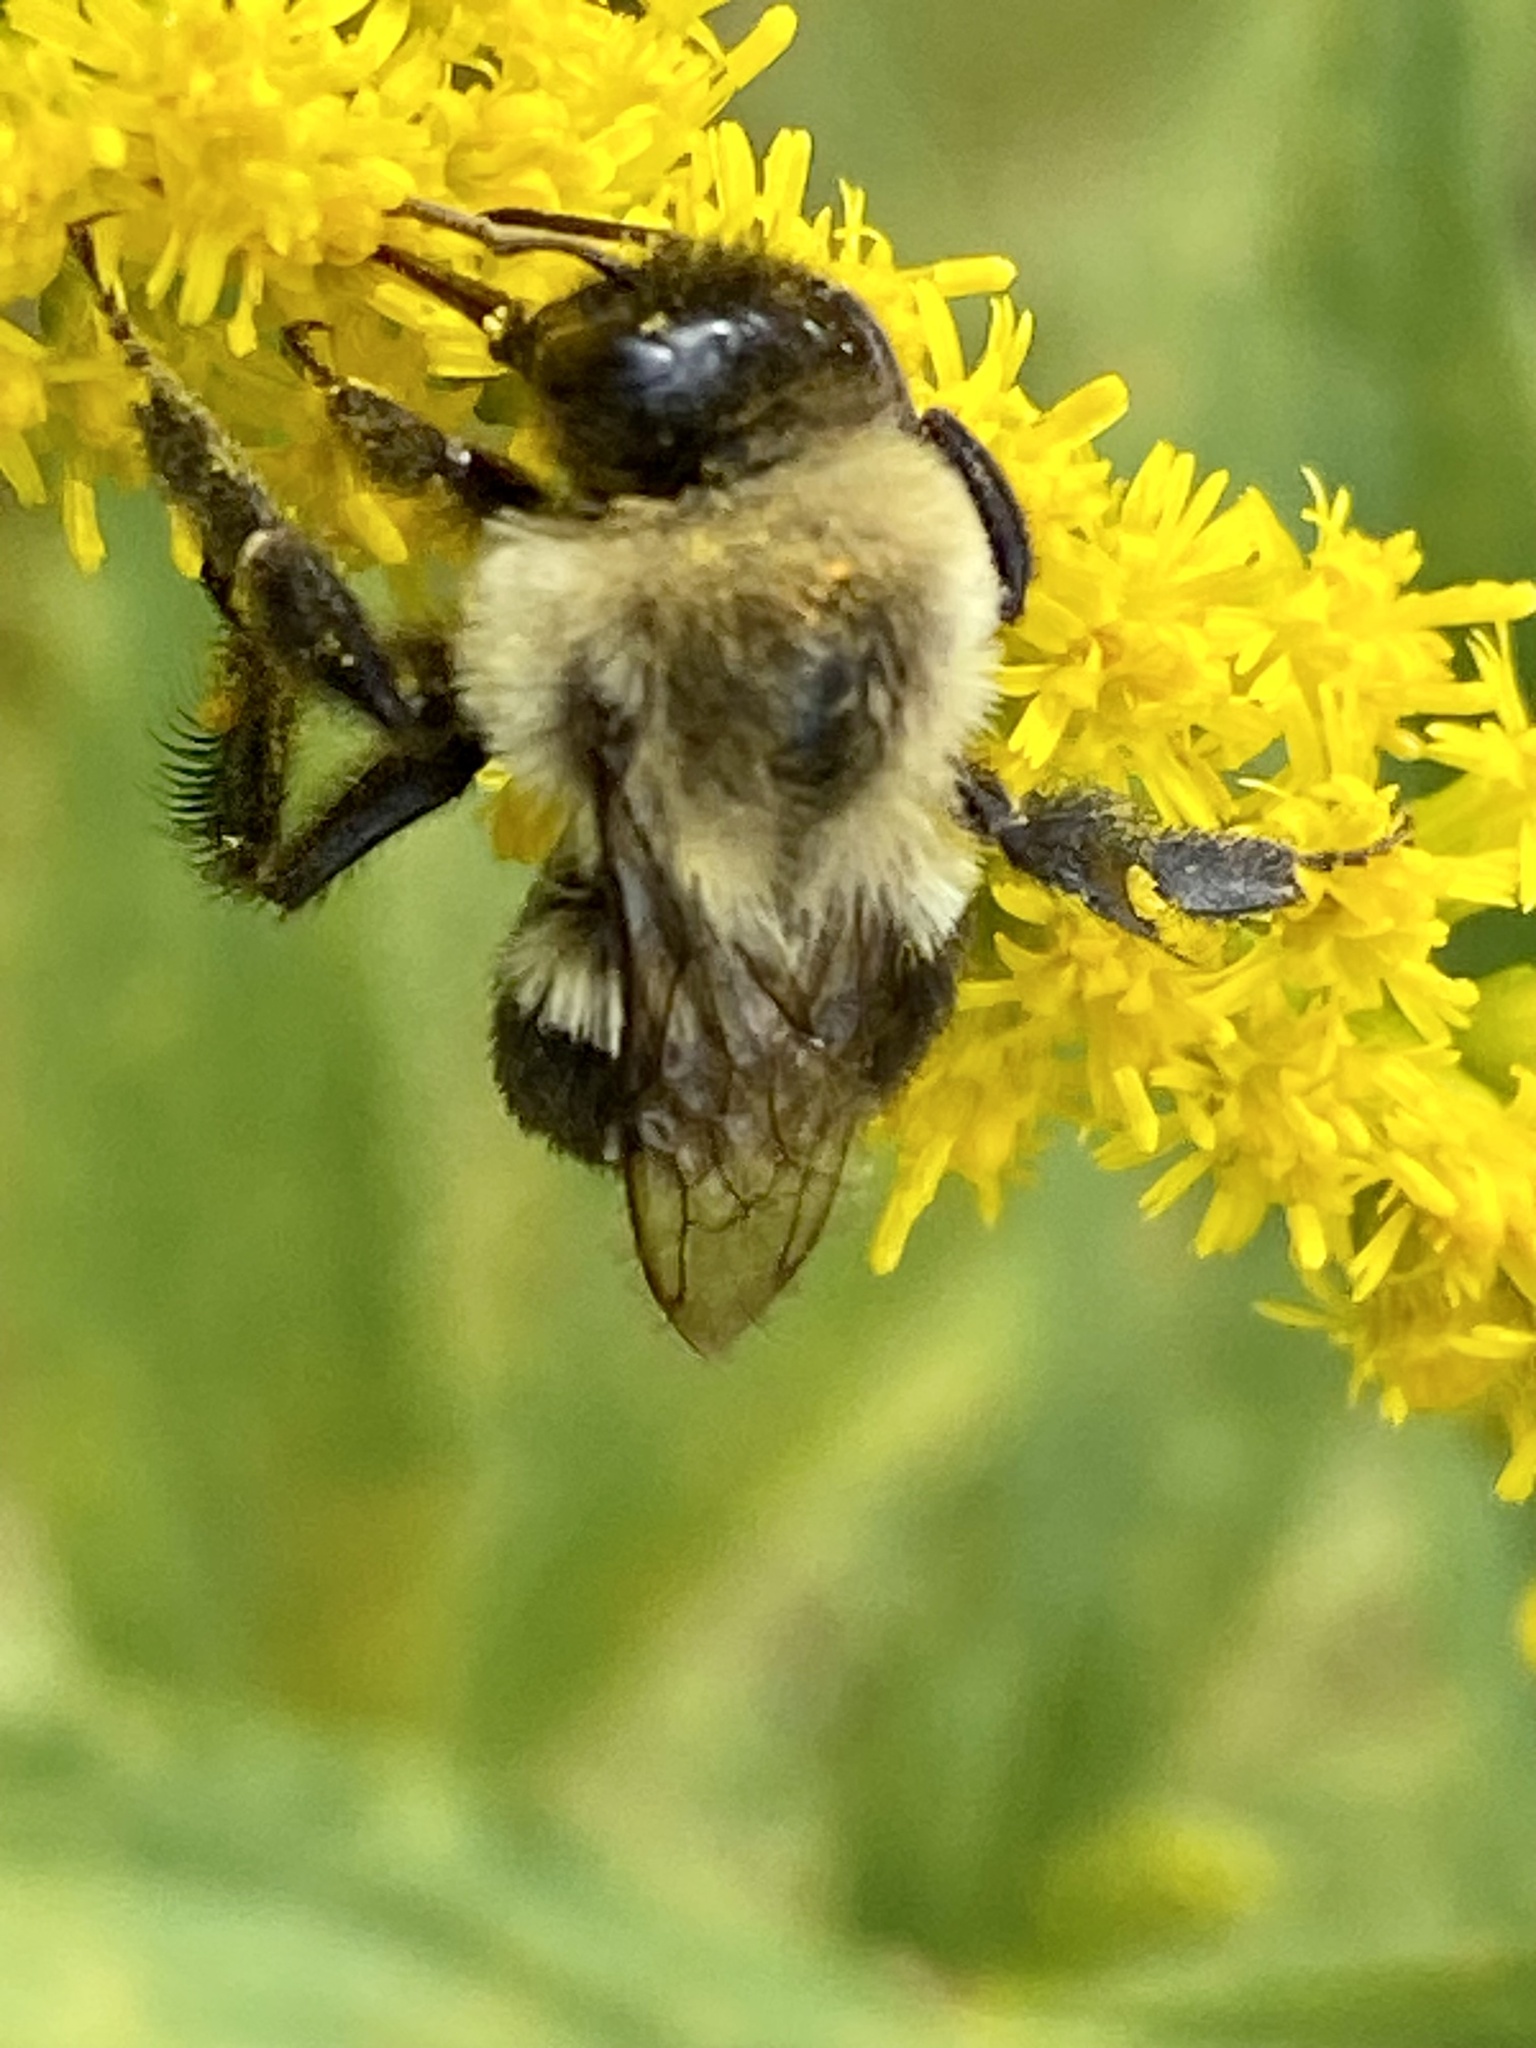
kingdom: Animalia
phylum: Arthropoda
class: Insecta
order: Hymenoptera
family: Apidae
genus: Bombus
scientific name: Bombus impatiens
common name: Common eastern bumble bee
